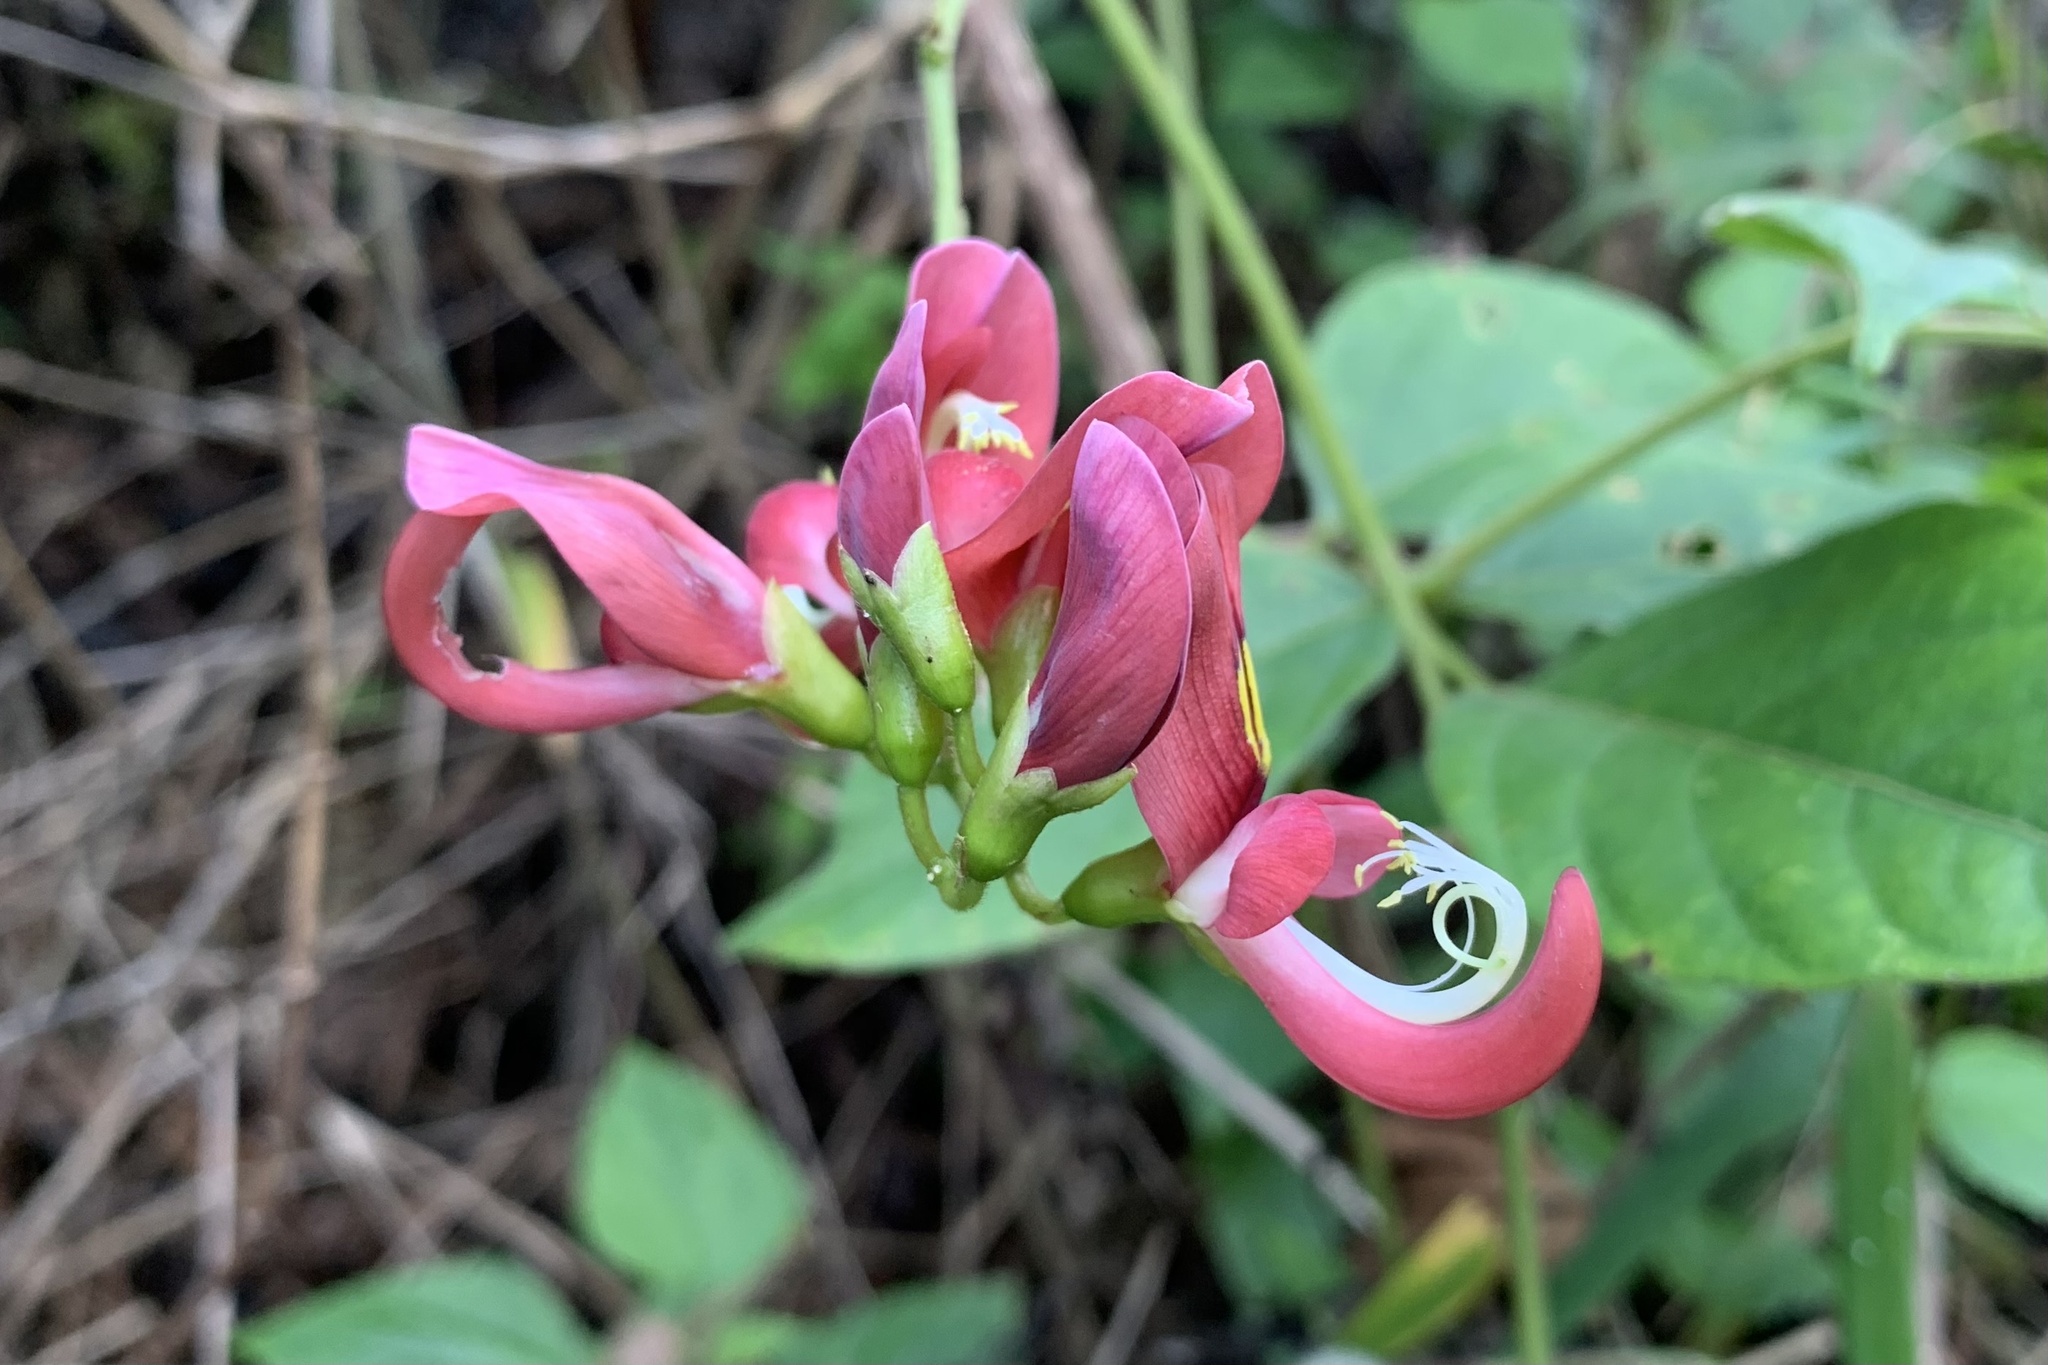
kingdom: Plantae
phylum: Tracheophyta
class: Magnoliopsida
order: Fabales
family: Fabaceae
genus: Apios
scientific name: Apios carnea
